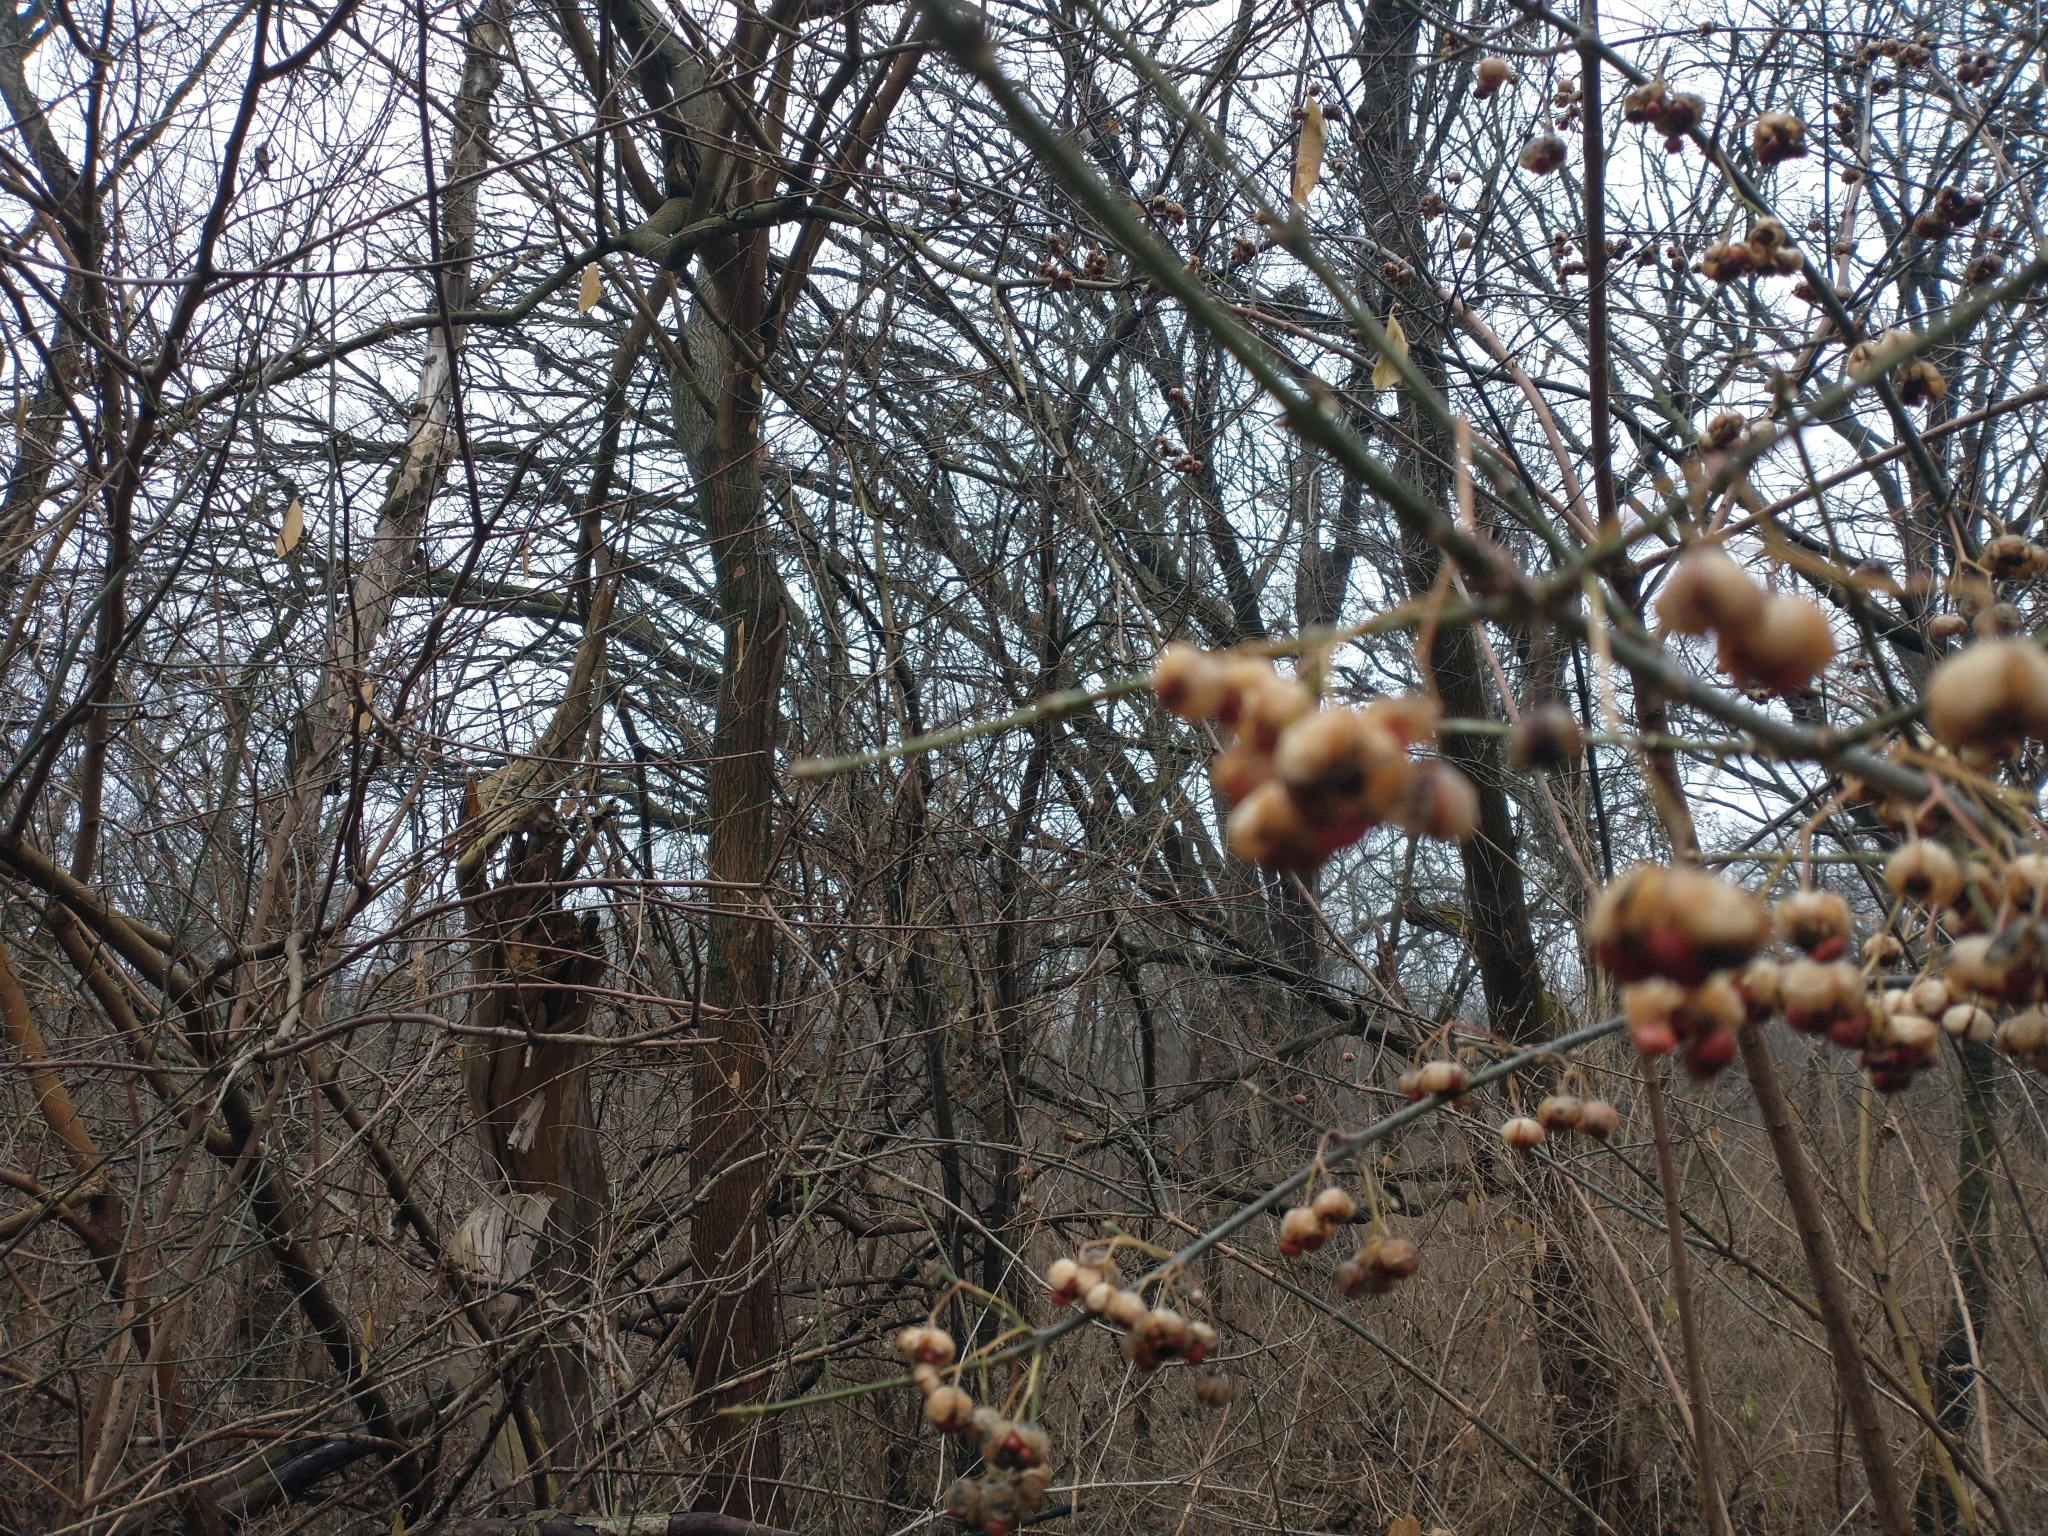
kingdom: Plantae
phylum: Tracheophyta
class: Magnoliopsida
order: Celastrales
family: Celastraceae
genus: Euonymus
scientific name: Euonymus europaeus
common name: Spindle
